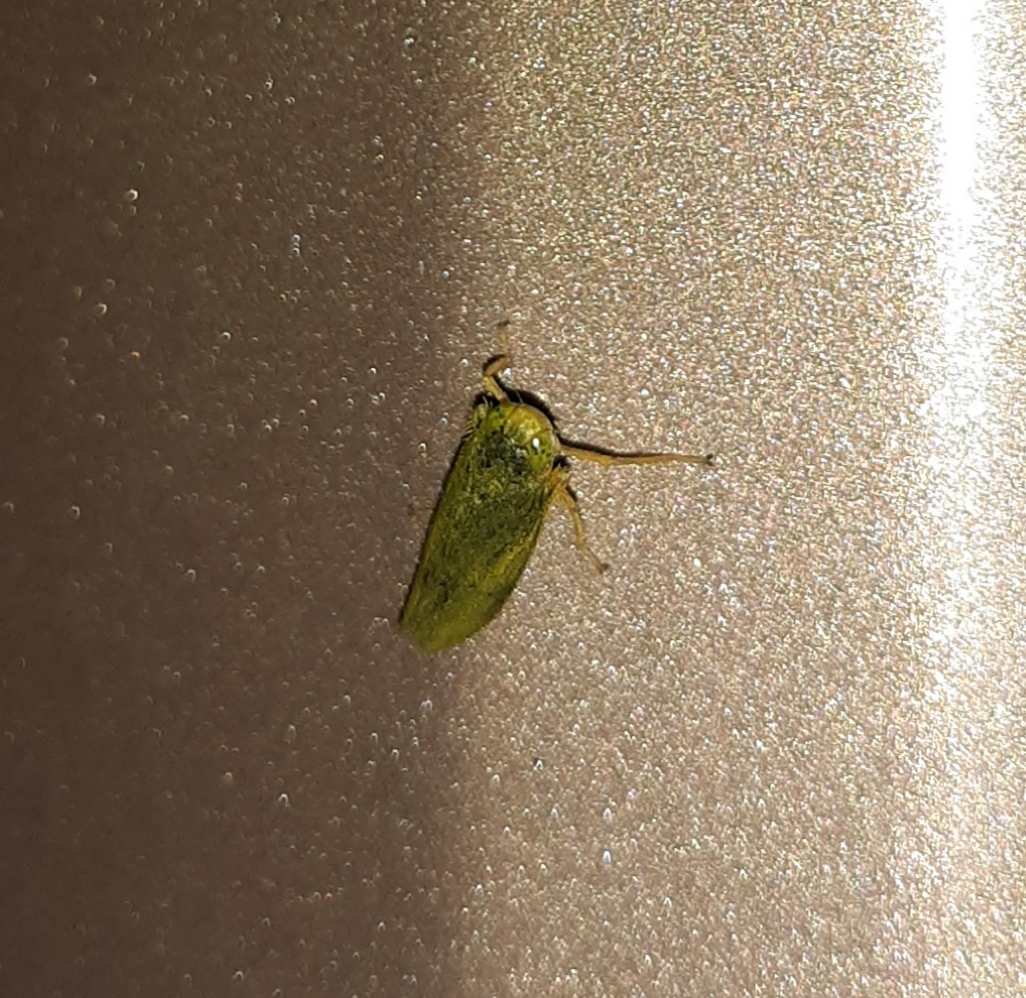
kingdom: Animalia
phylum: Arthropoda
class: Insecta
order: Hemiptera
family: Cicadellidae
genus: Jikradia
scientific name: Jikradia olitoria
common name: Coppery leafhopper
